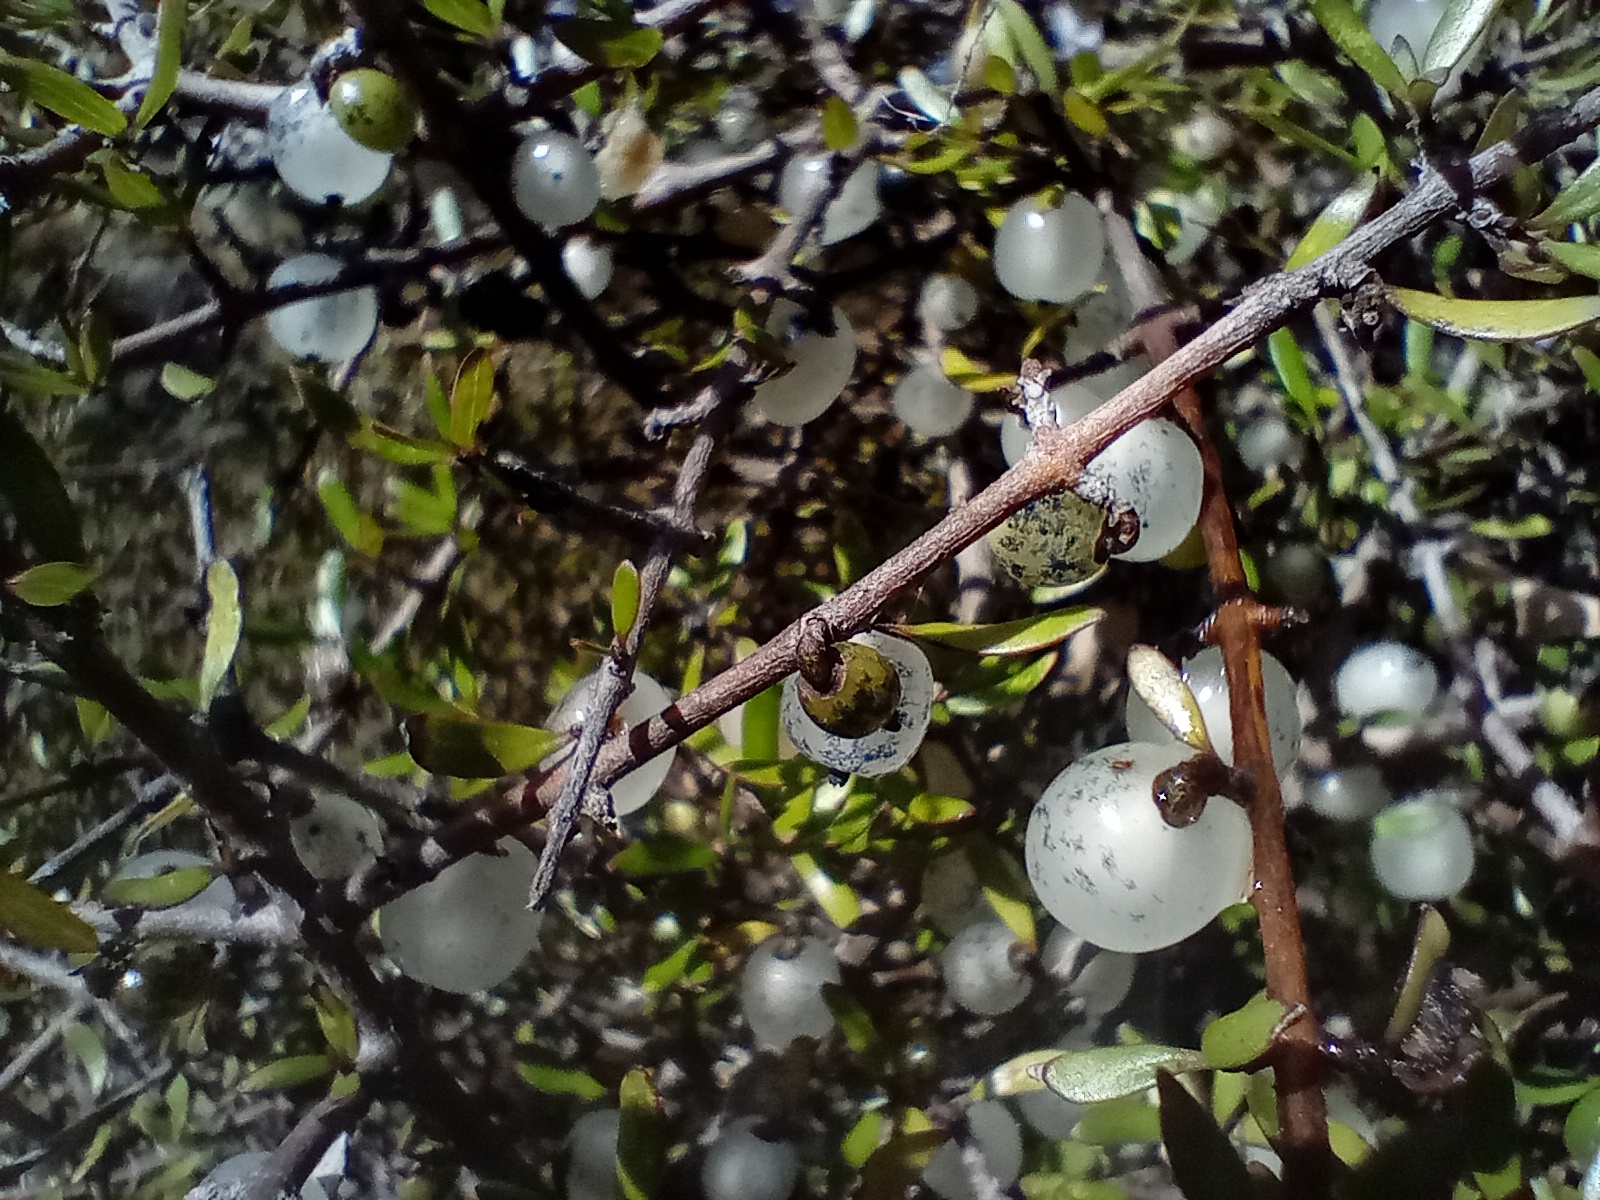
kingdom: Plantae
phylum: Tracheophyta
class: Magnoliopsida
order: Gentianales
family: Rubiaceae
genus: Coprosma
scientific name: Coprosma propinqua
